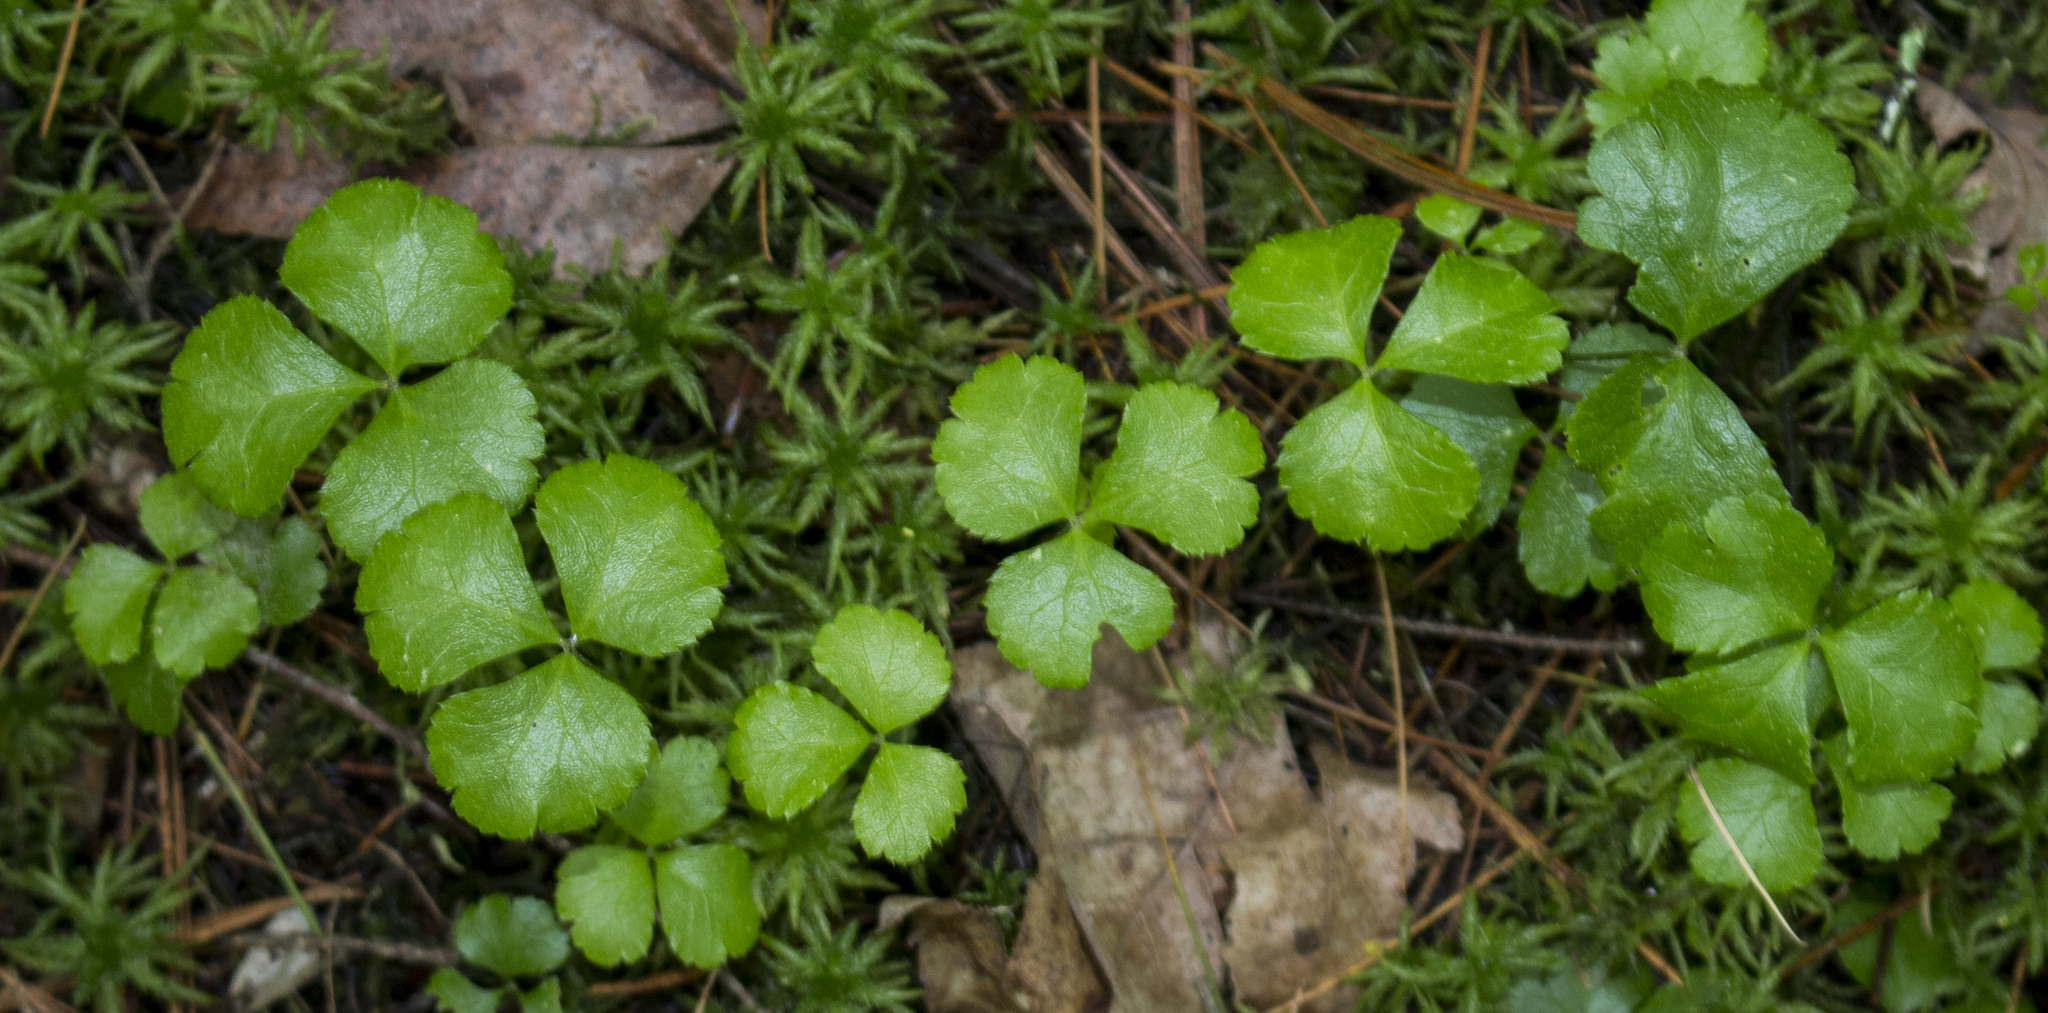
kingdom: Plantae
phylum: Tracheophyta
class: Magnoliopsida
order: Ranunculales
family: Ranunculaceae
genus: Coptis
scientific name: Coptis trifolia
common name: Canker-root
